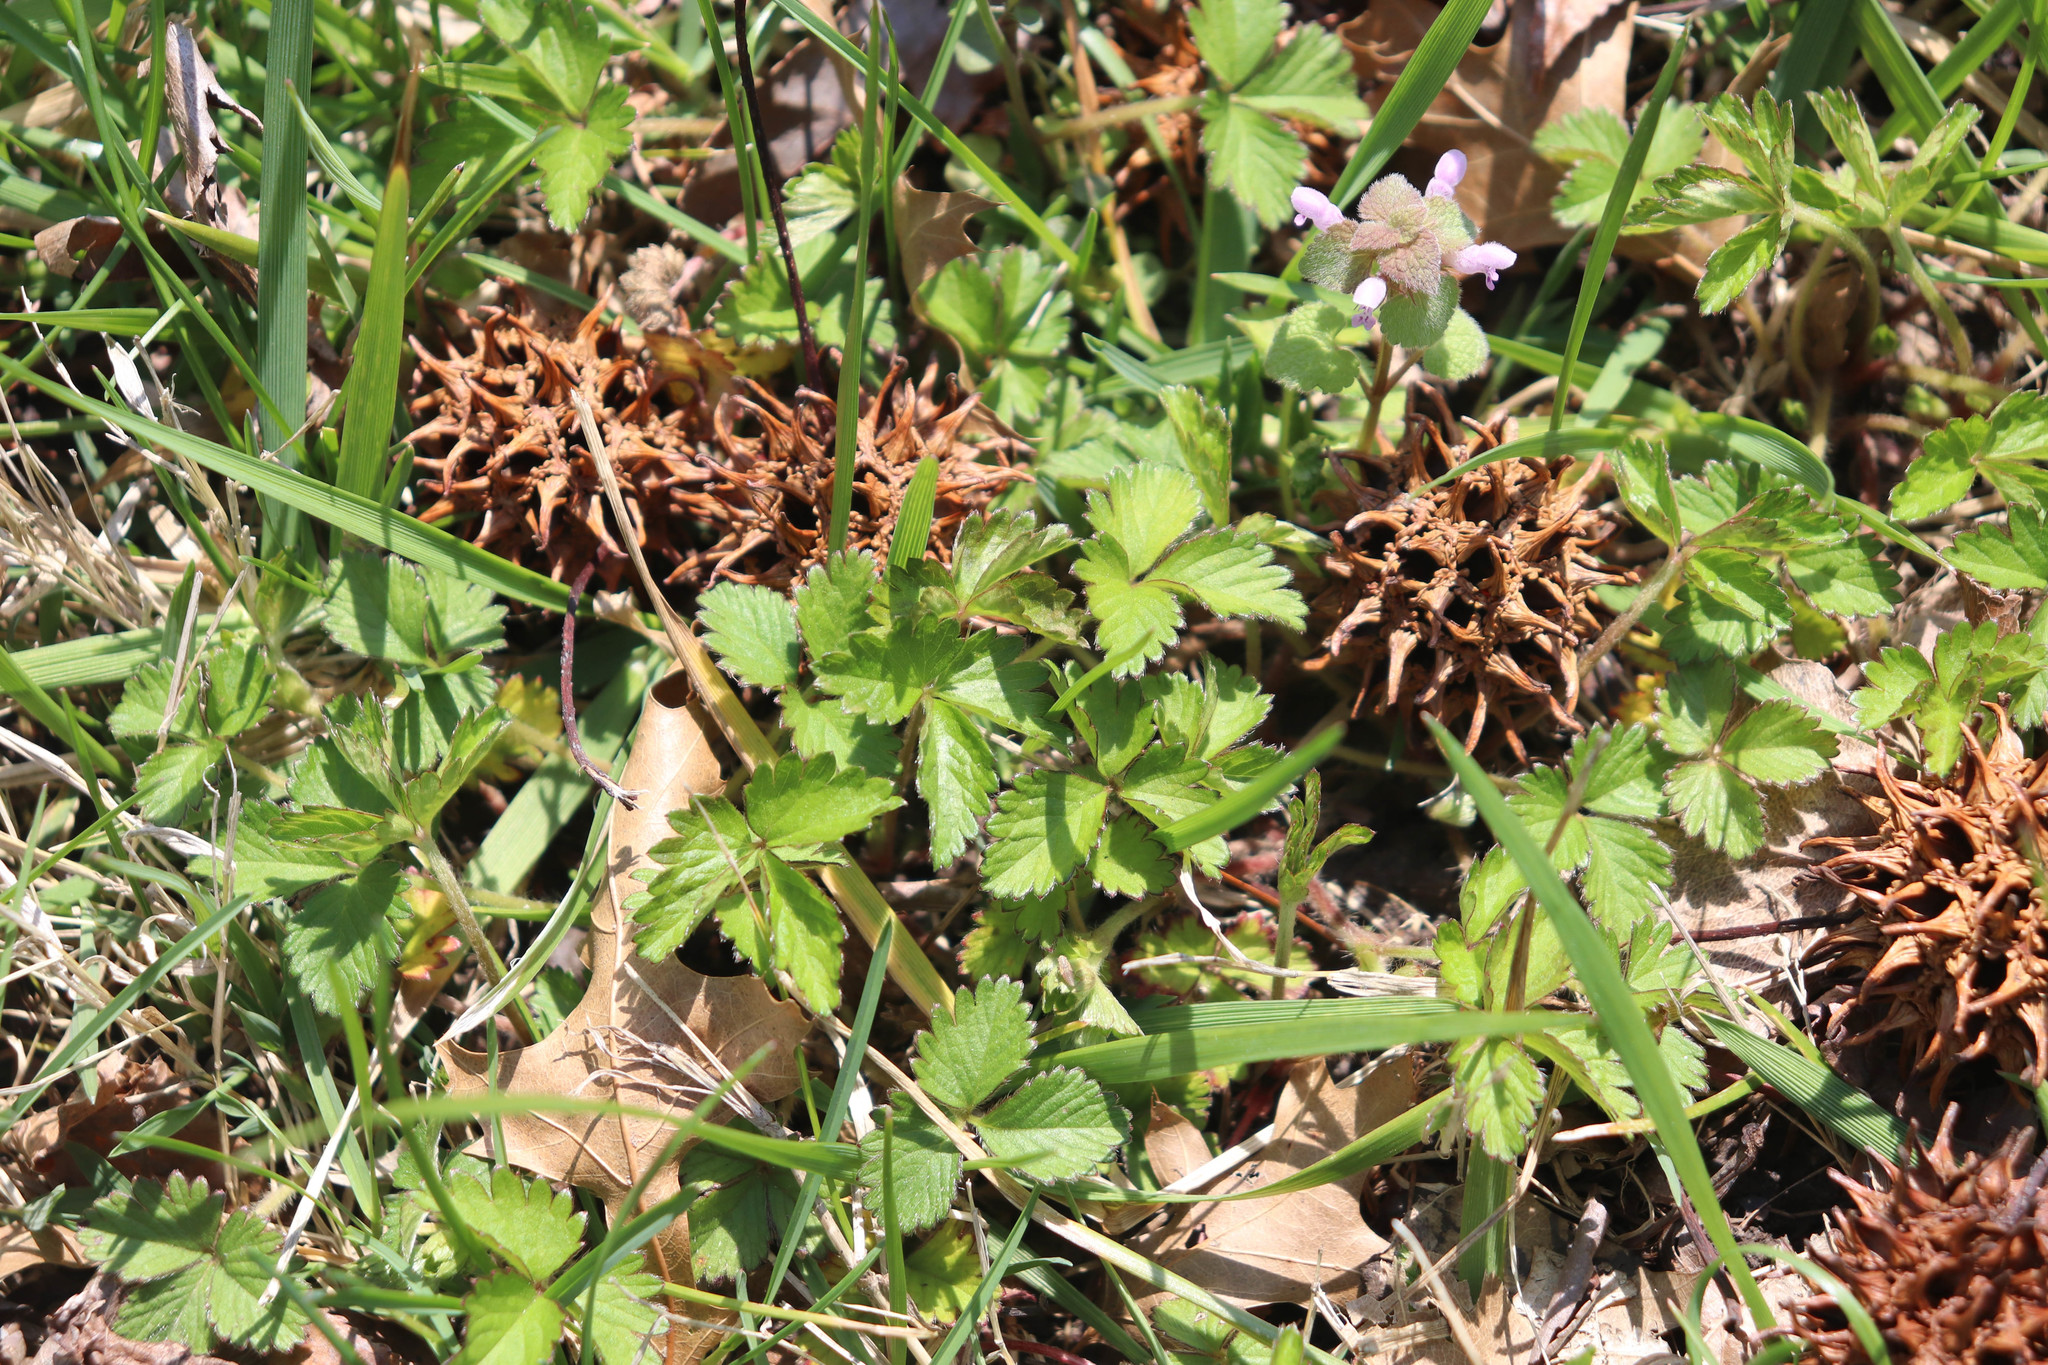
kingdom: Plantae
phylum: Tracheophyta
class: Magnoliopsida
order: Rosales
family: Rosaceae
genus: Potentilla
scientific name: Potentilla indica
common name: Yellow-flowered strawberry
